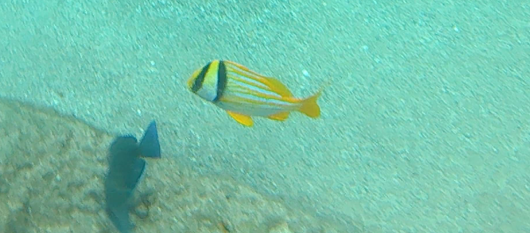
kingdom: Animalia
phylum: Chordata
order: Perciformes
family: Haemulidae
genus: Anisotremus
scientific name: Anisotremus virginicus
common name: Porkfish
